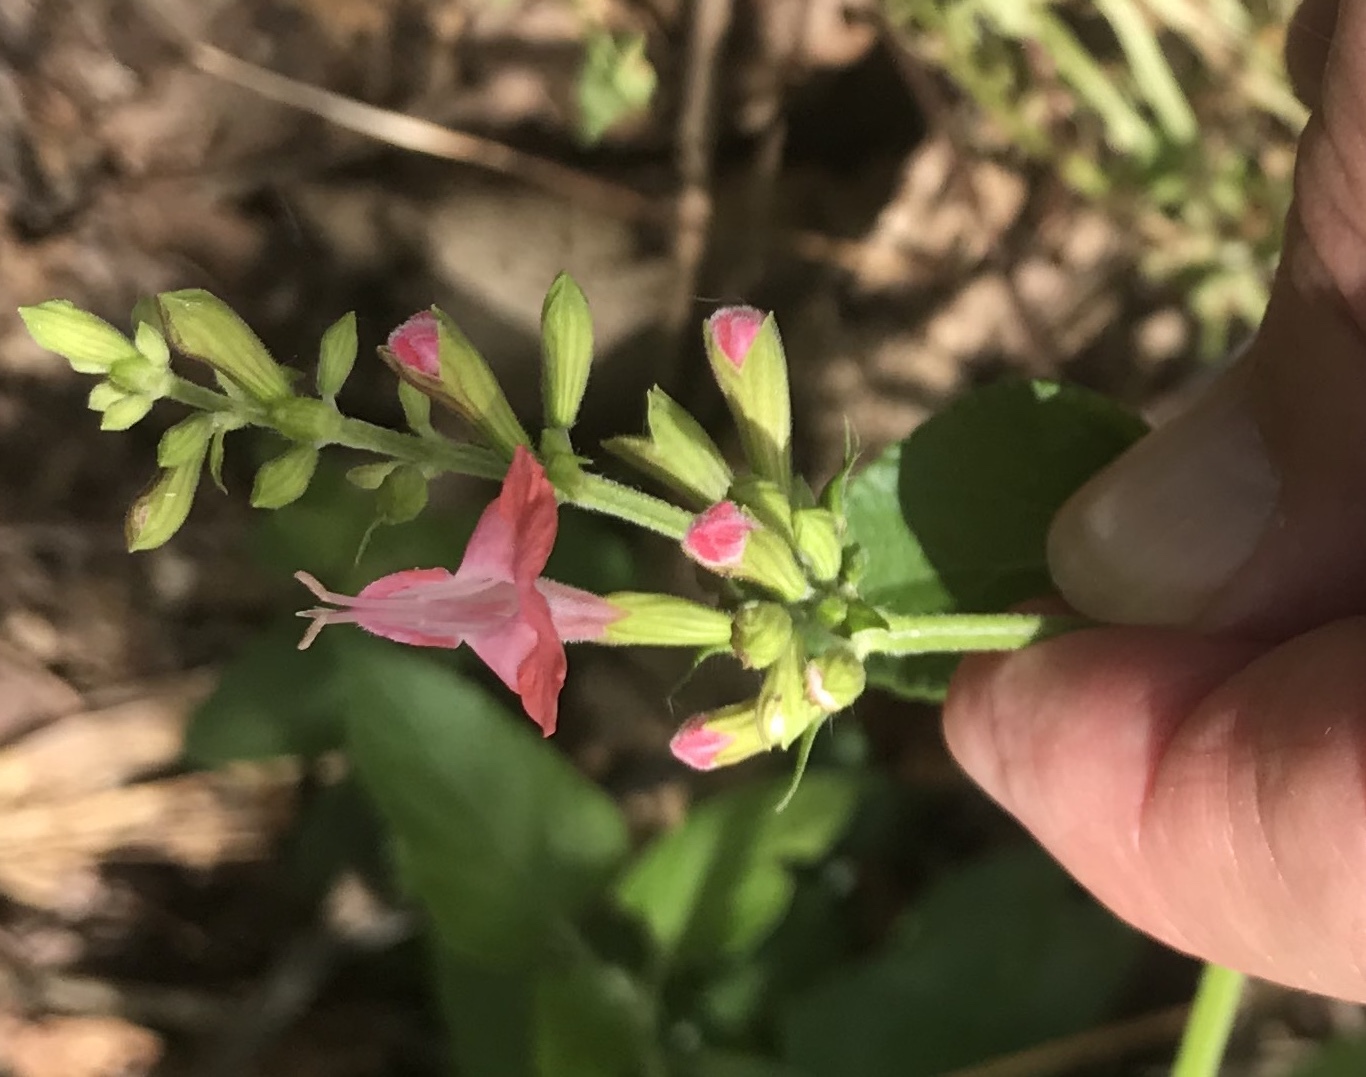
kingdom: Plantae
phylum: Tracheophyta
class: Magnoliopsida
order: Lamiales
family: Lamiaceae
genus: Salvia
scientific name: Salvia coccinea
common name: Blood sage
